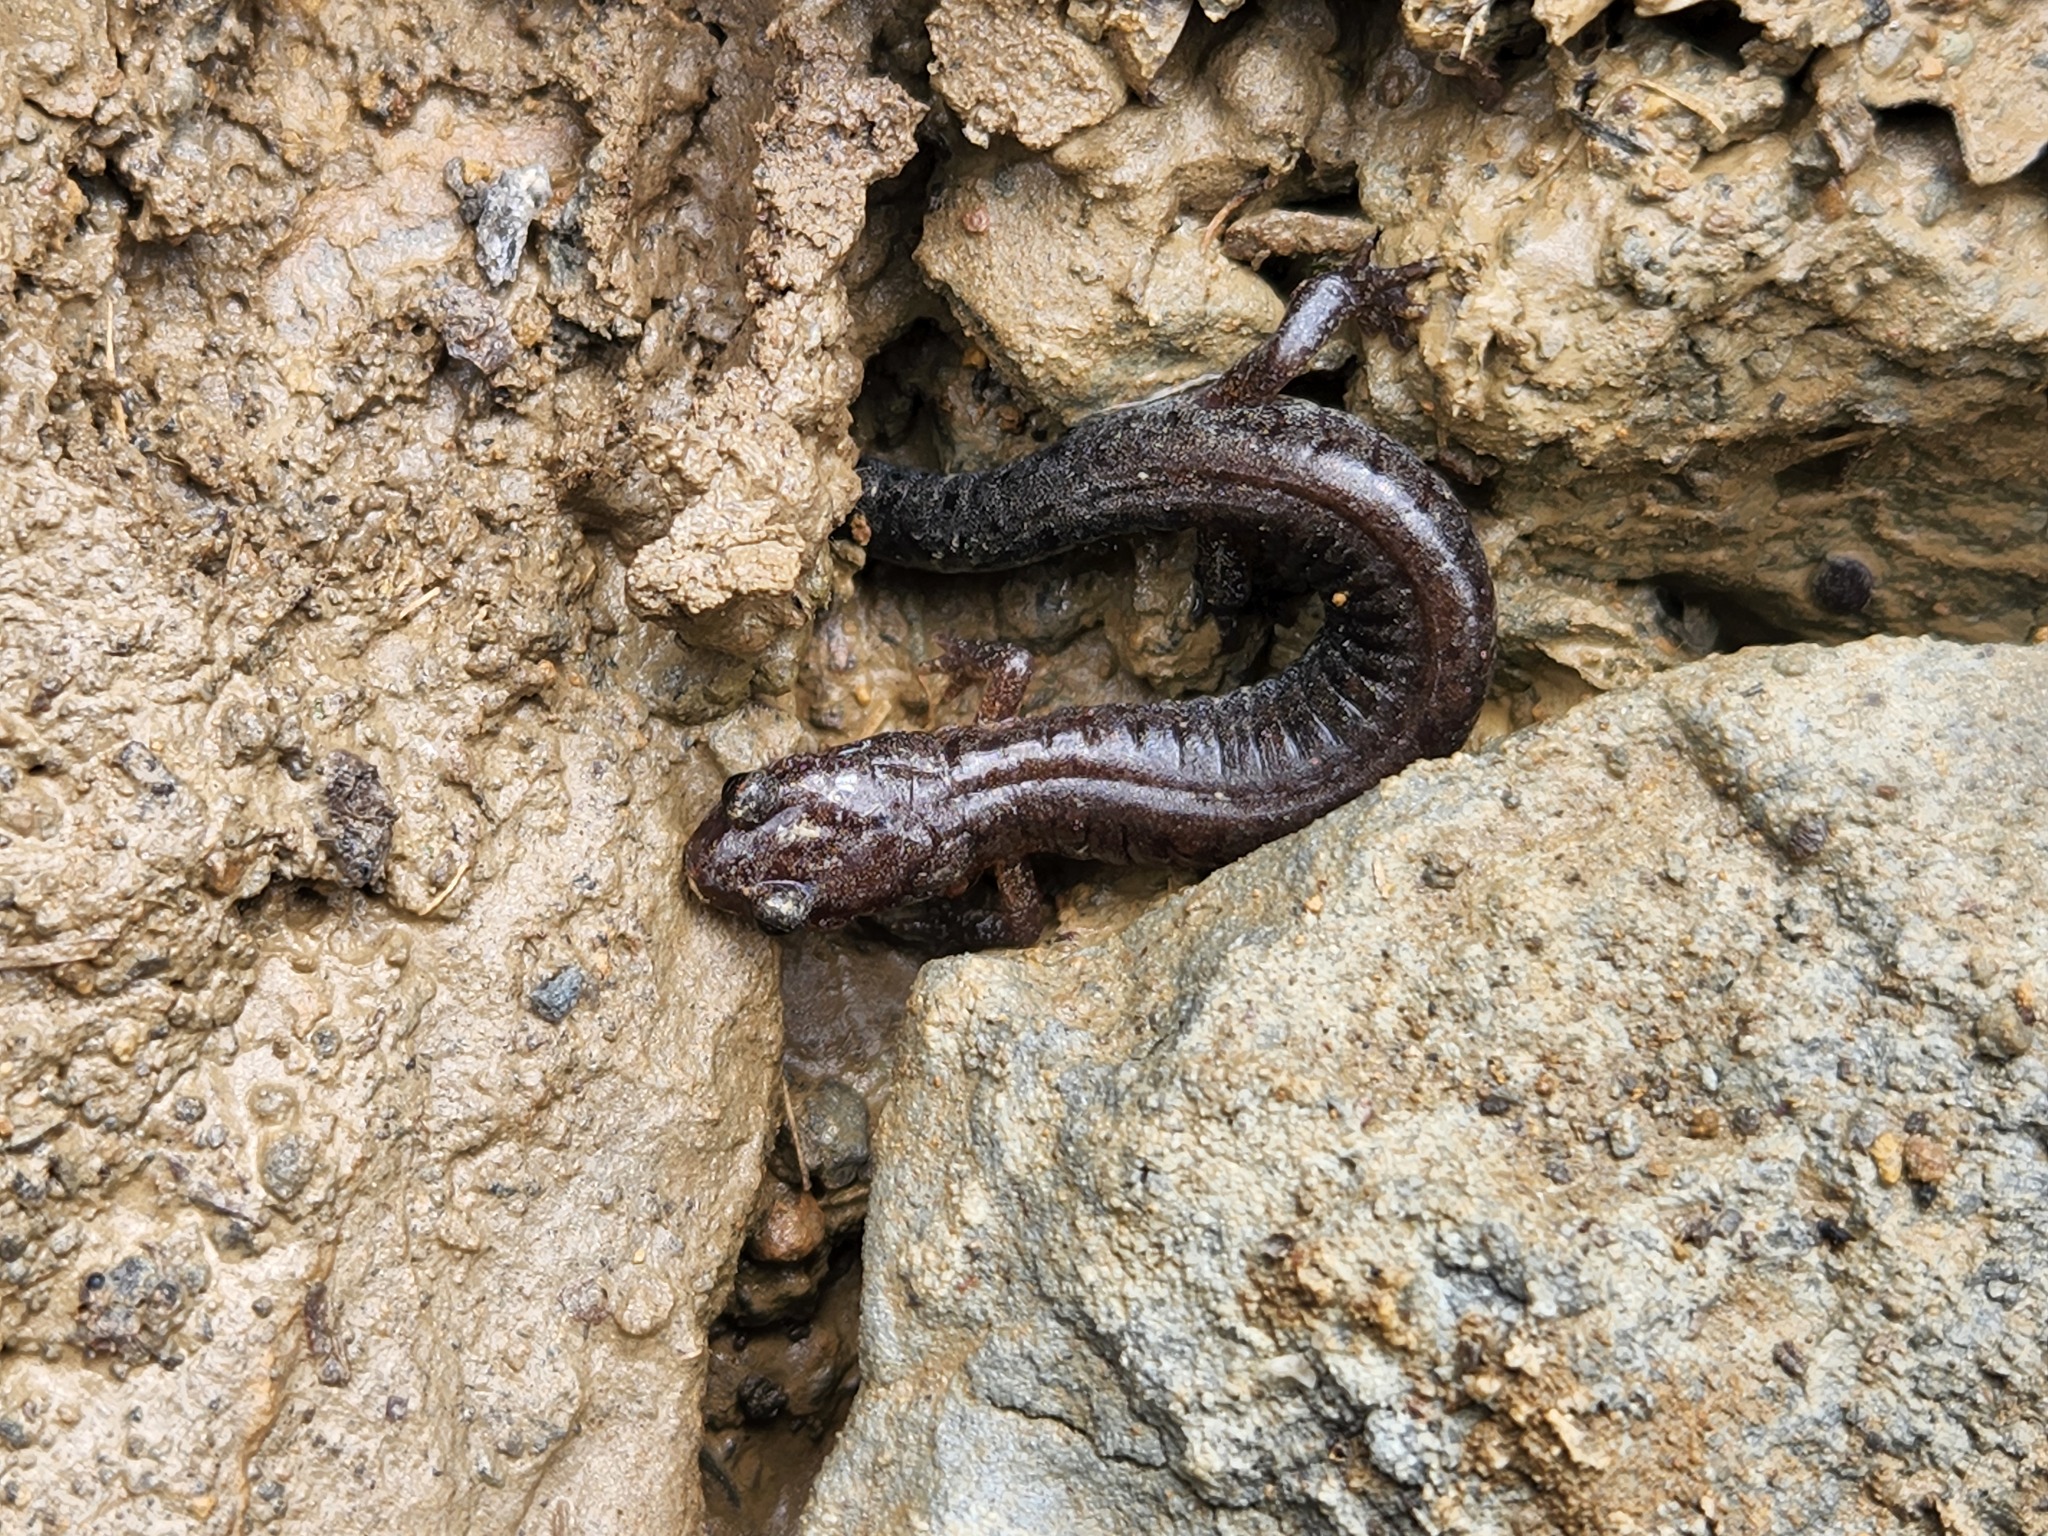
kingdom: Animalia
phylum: Chordata
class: Amphibia
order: Caudata
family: Plethodontidae
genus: Plethodon
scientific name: Plethodon dorsalis
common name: Northern zigzag salamander
